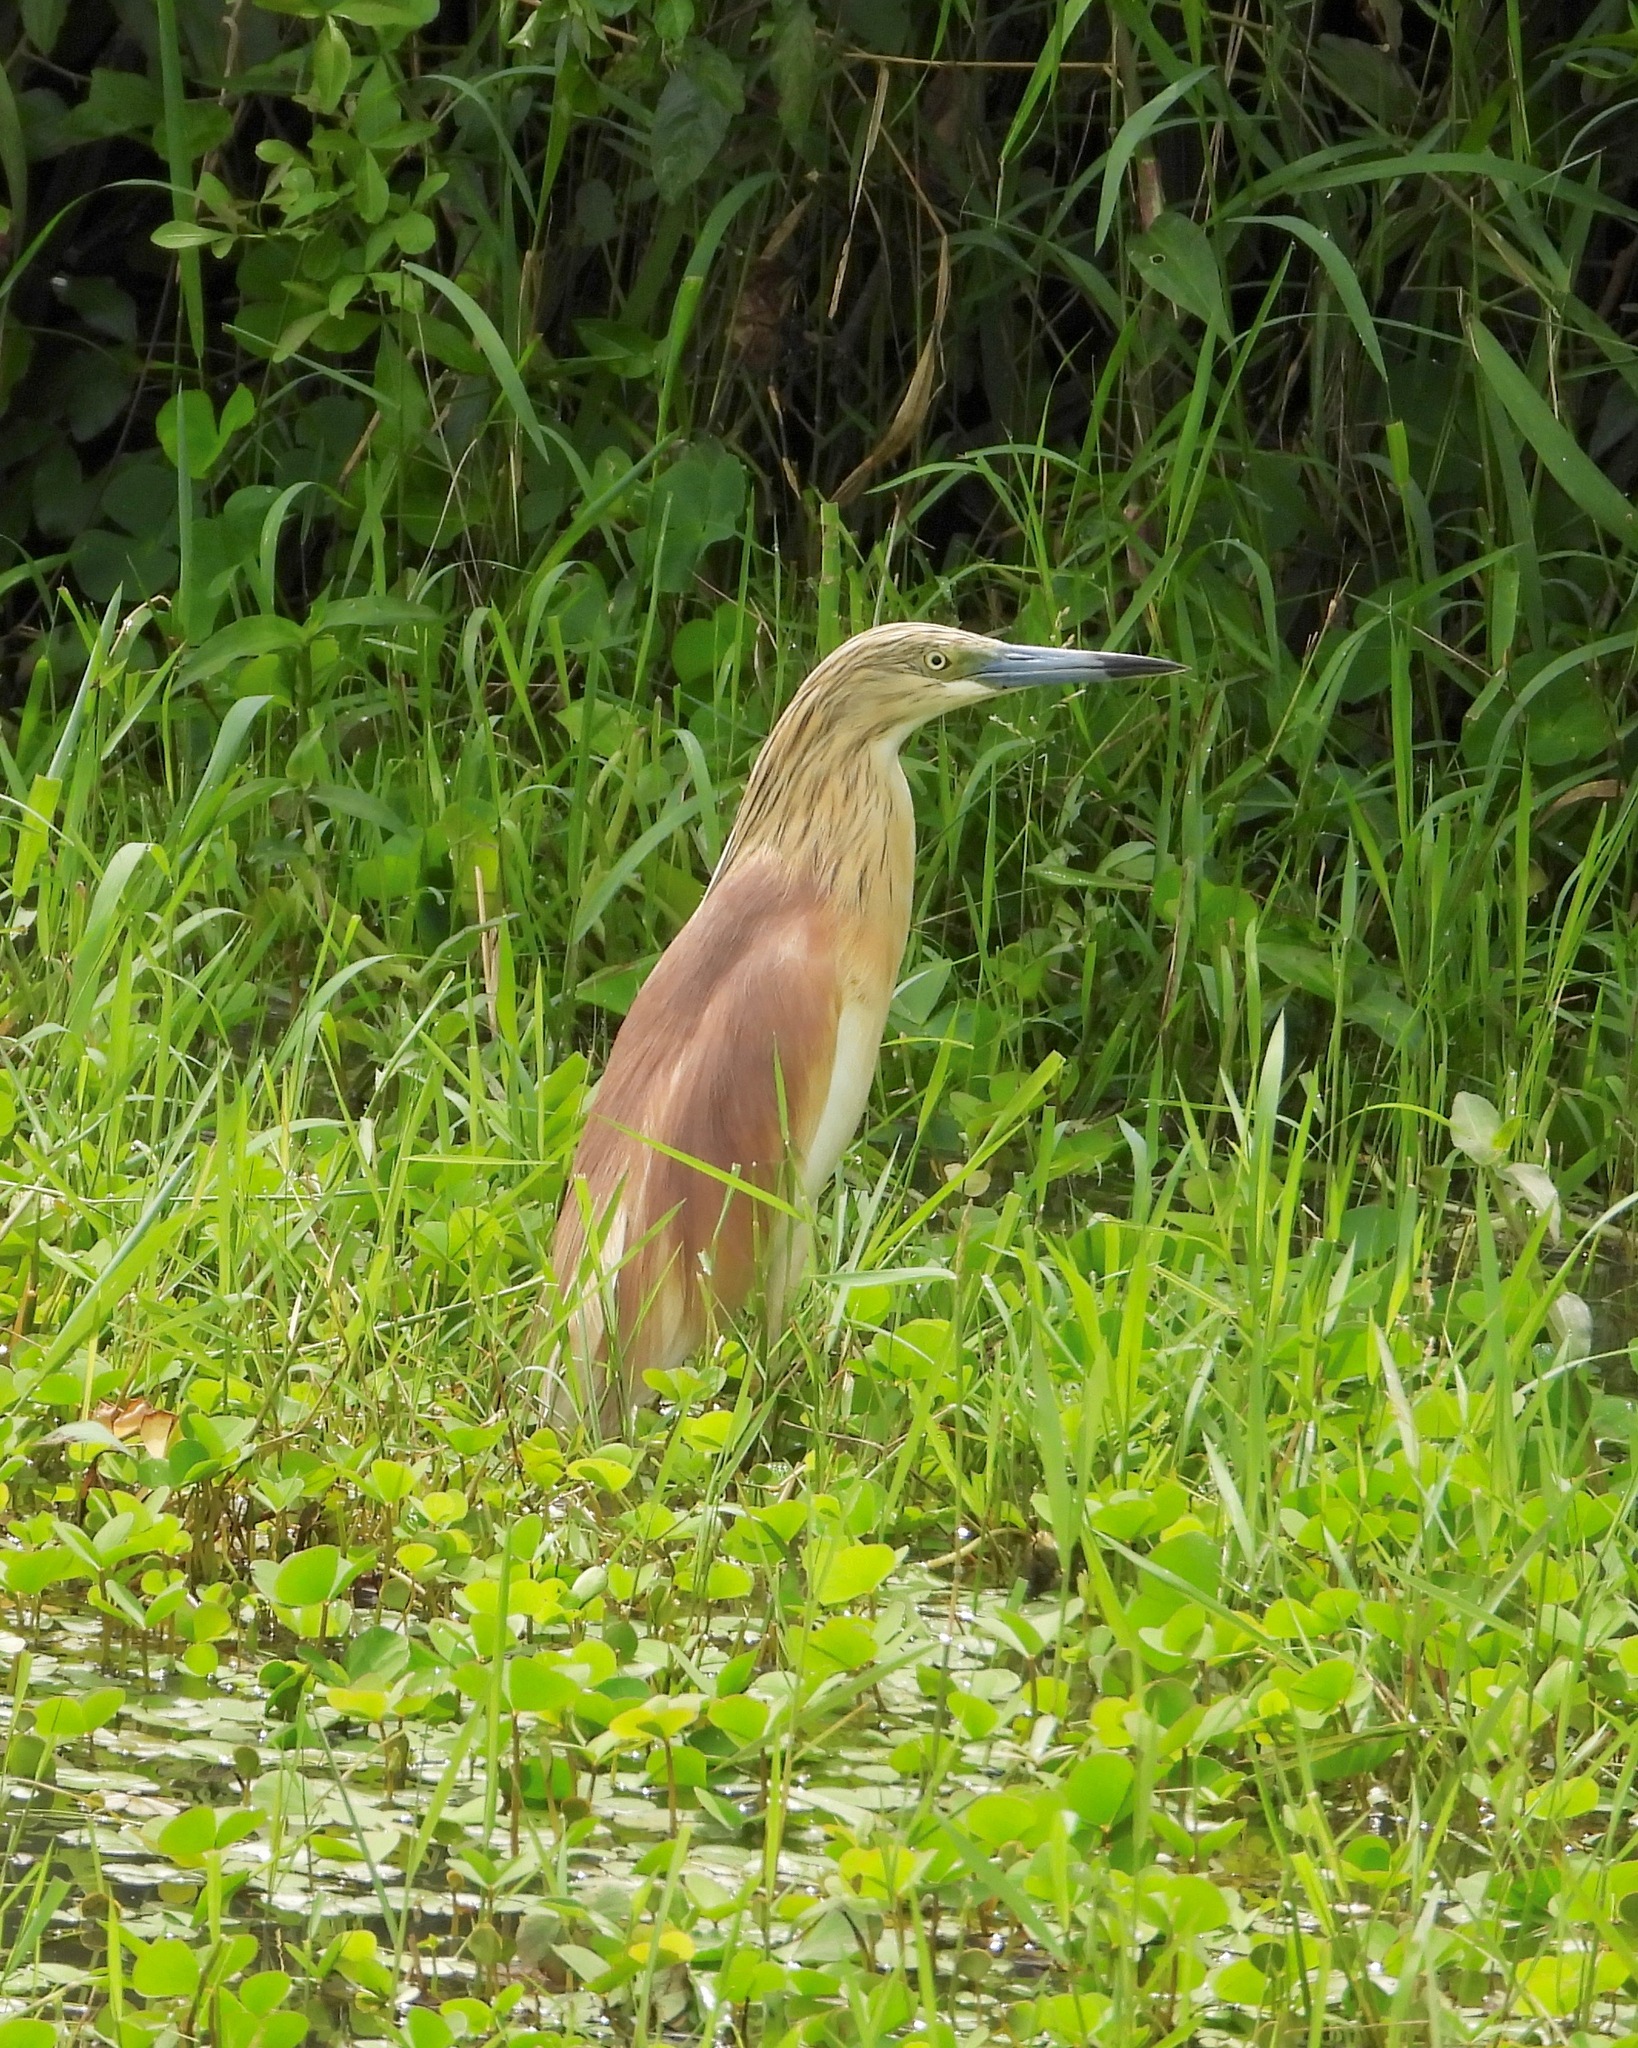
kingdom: Animalia
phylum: Chordata
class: Aves
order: Pelecaniformes
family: Ardeidae
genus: Ardeola
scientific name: Ardeola ralloides
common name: Squacco heron
